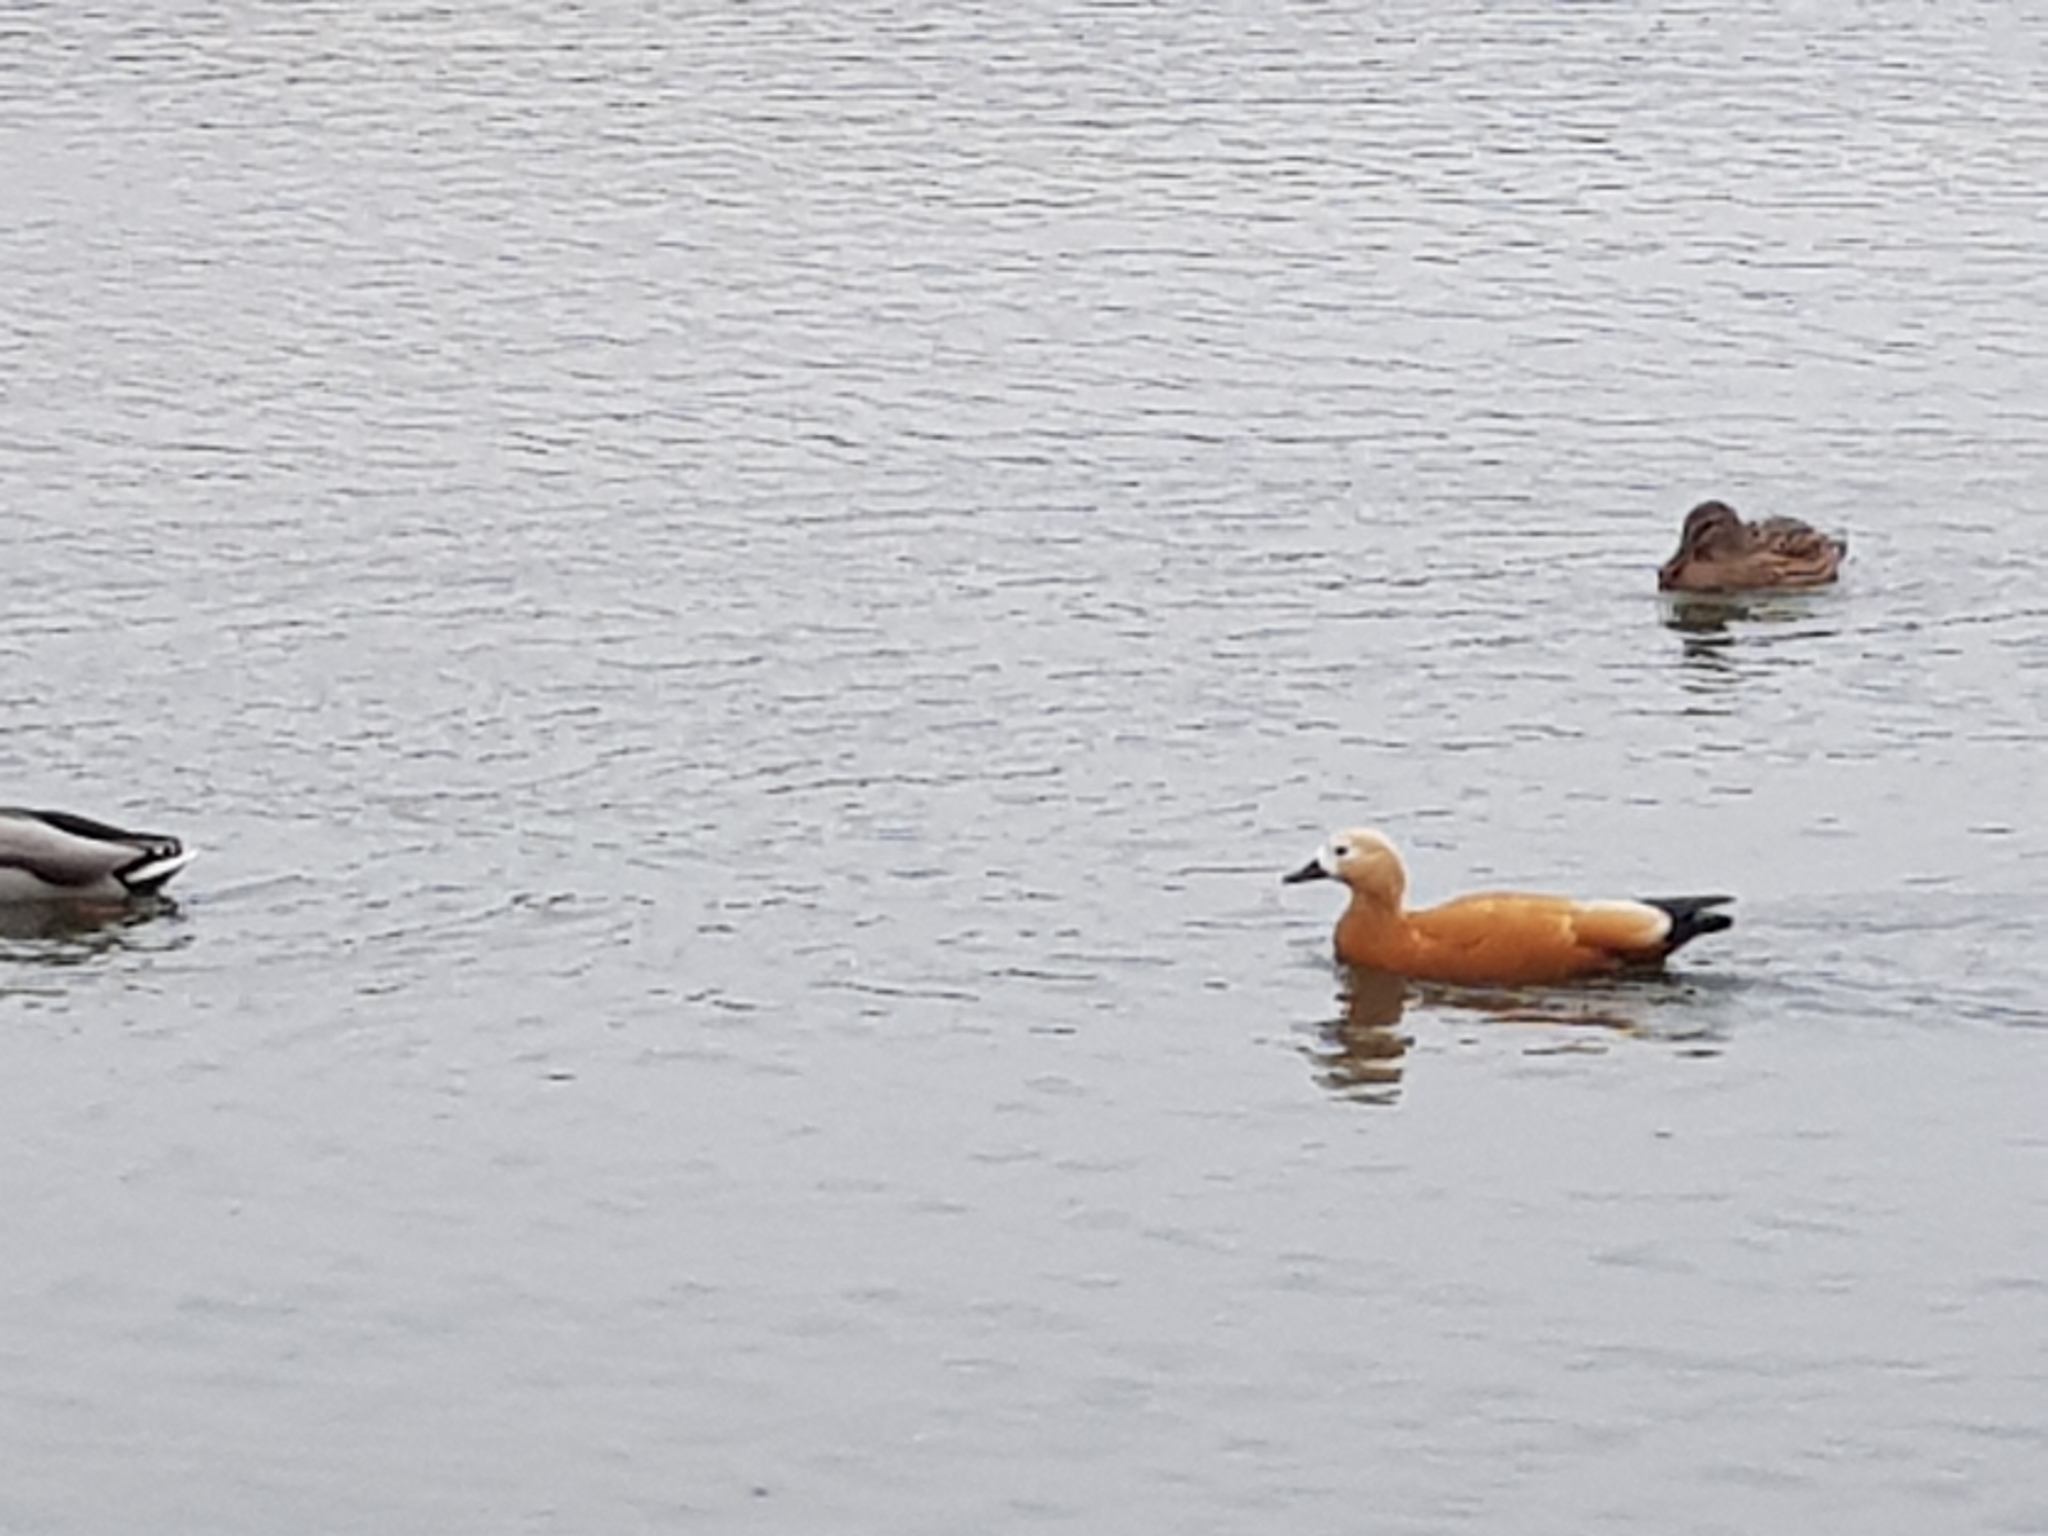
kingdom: Animalia
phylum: Chordata
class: Aves
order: Anseriformes
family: Anatidae
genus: Tadorna
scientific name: Tadorna ferruginea
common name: Ruddy shelduck
